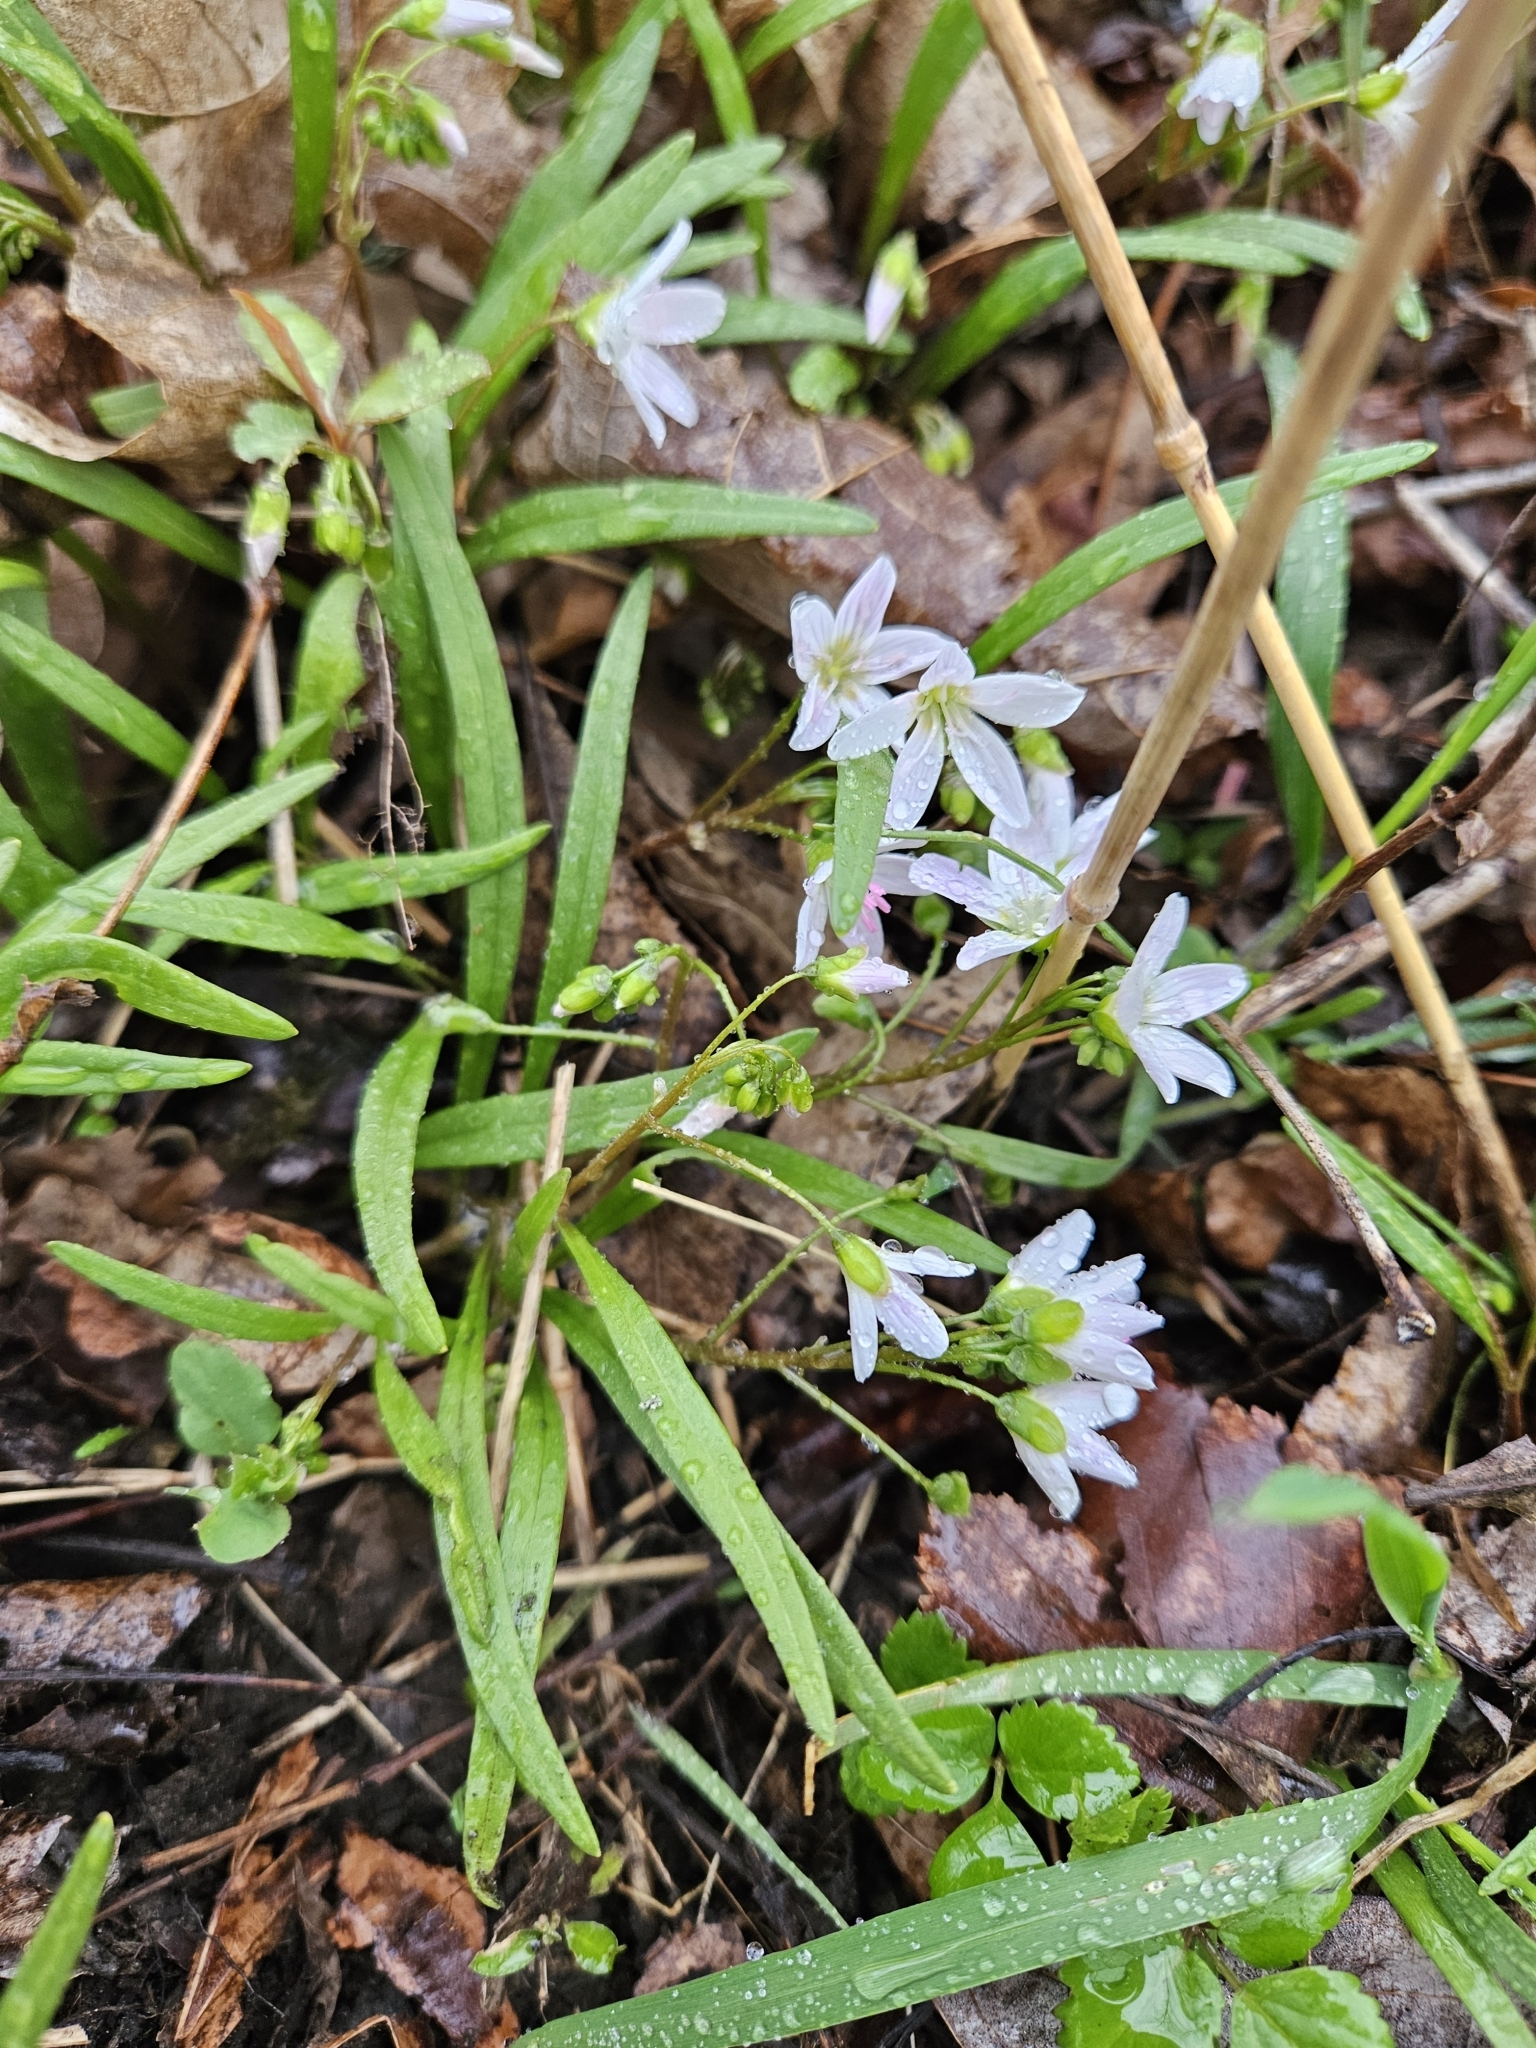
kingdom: Plantae
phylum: Tracheophyta
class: Magnoliopsida
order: Caryophyllales
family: Montiaceae
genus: Claytonia
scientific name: Claytonia virginica
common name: Virginia springbeauty
